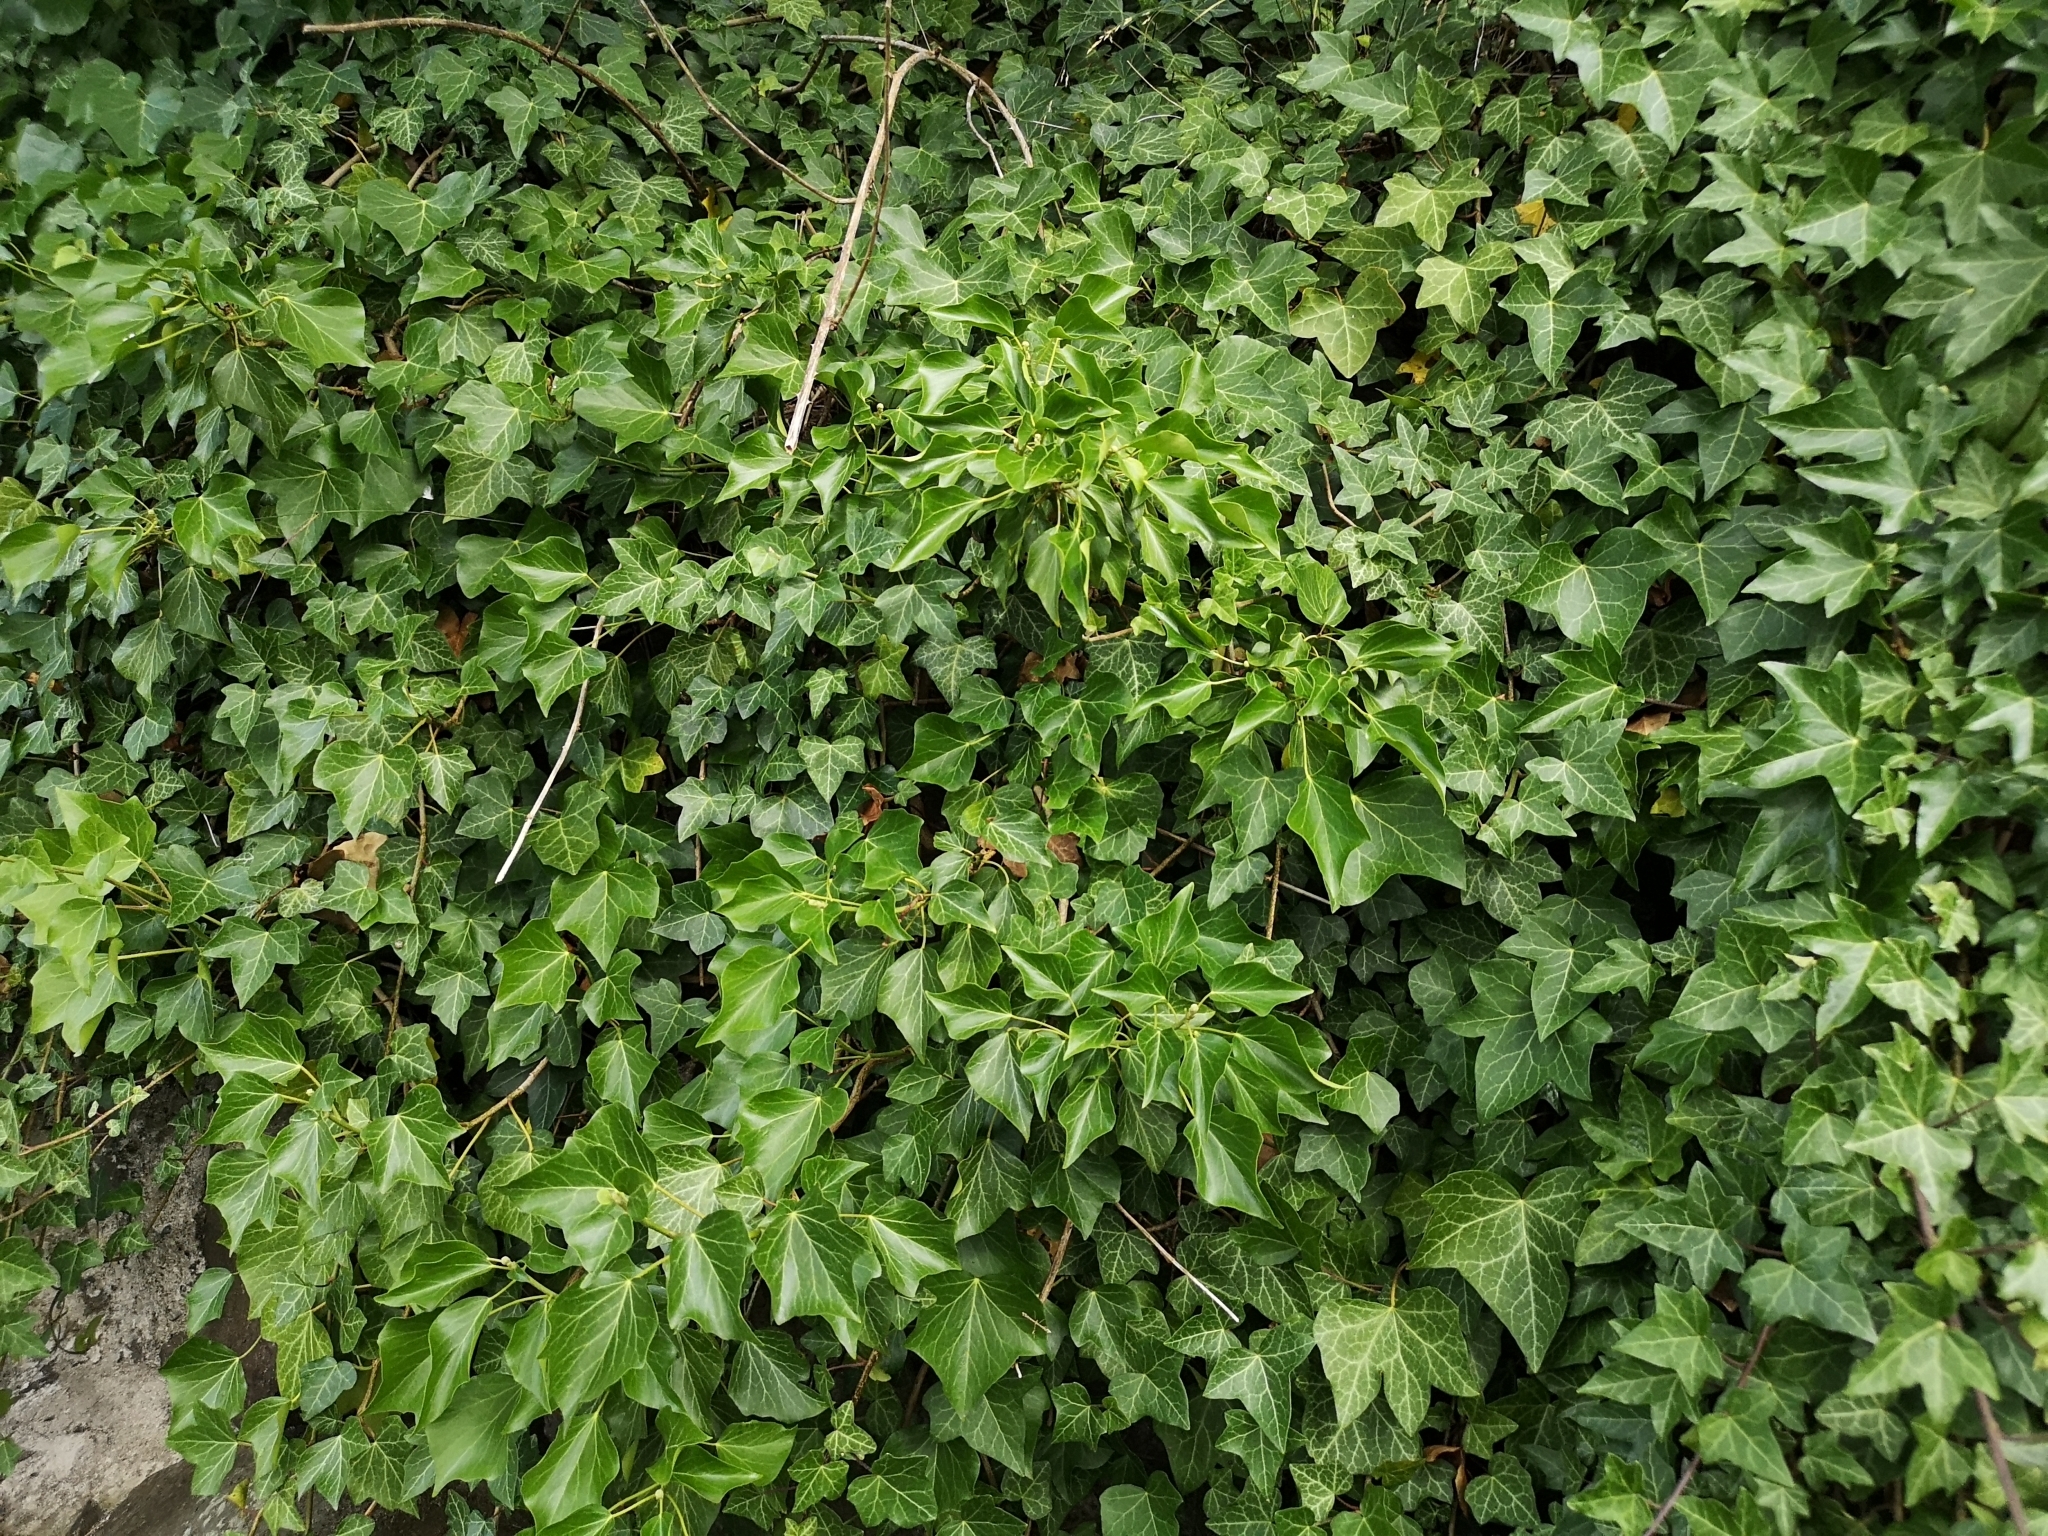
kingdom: Plantae
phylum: Tracheophyta
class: Magnoliopsida
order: Apiales
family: Araliaceae
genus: Hedera
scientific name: Hedera helix
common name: Ivy
